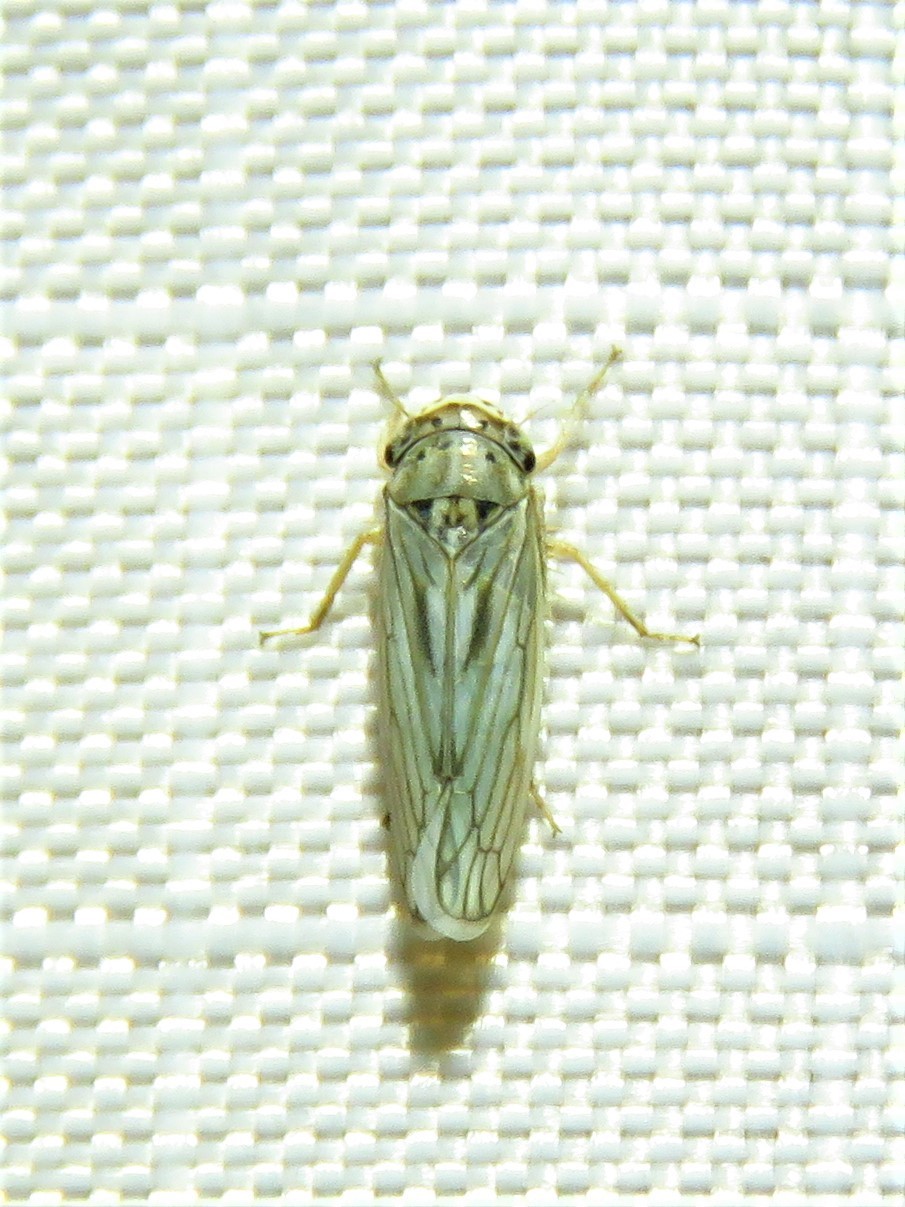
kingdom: Animalia
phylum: Arthropoda
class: Insecta
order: Hemiptera
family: Cicadellidae
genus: Exitianus
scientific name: Exitianus exitiosus
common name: Gray lawn leafhopper
